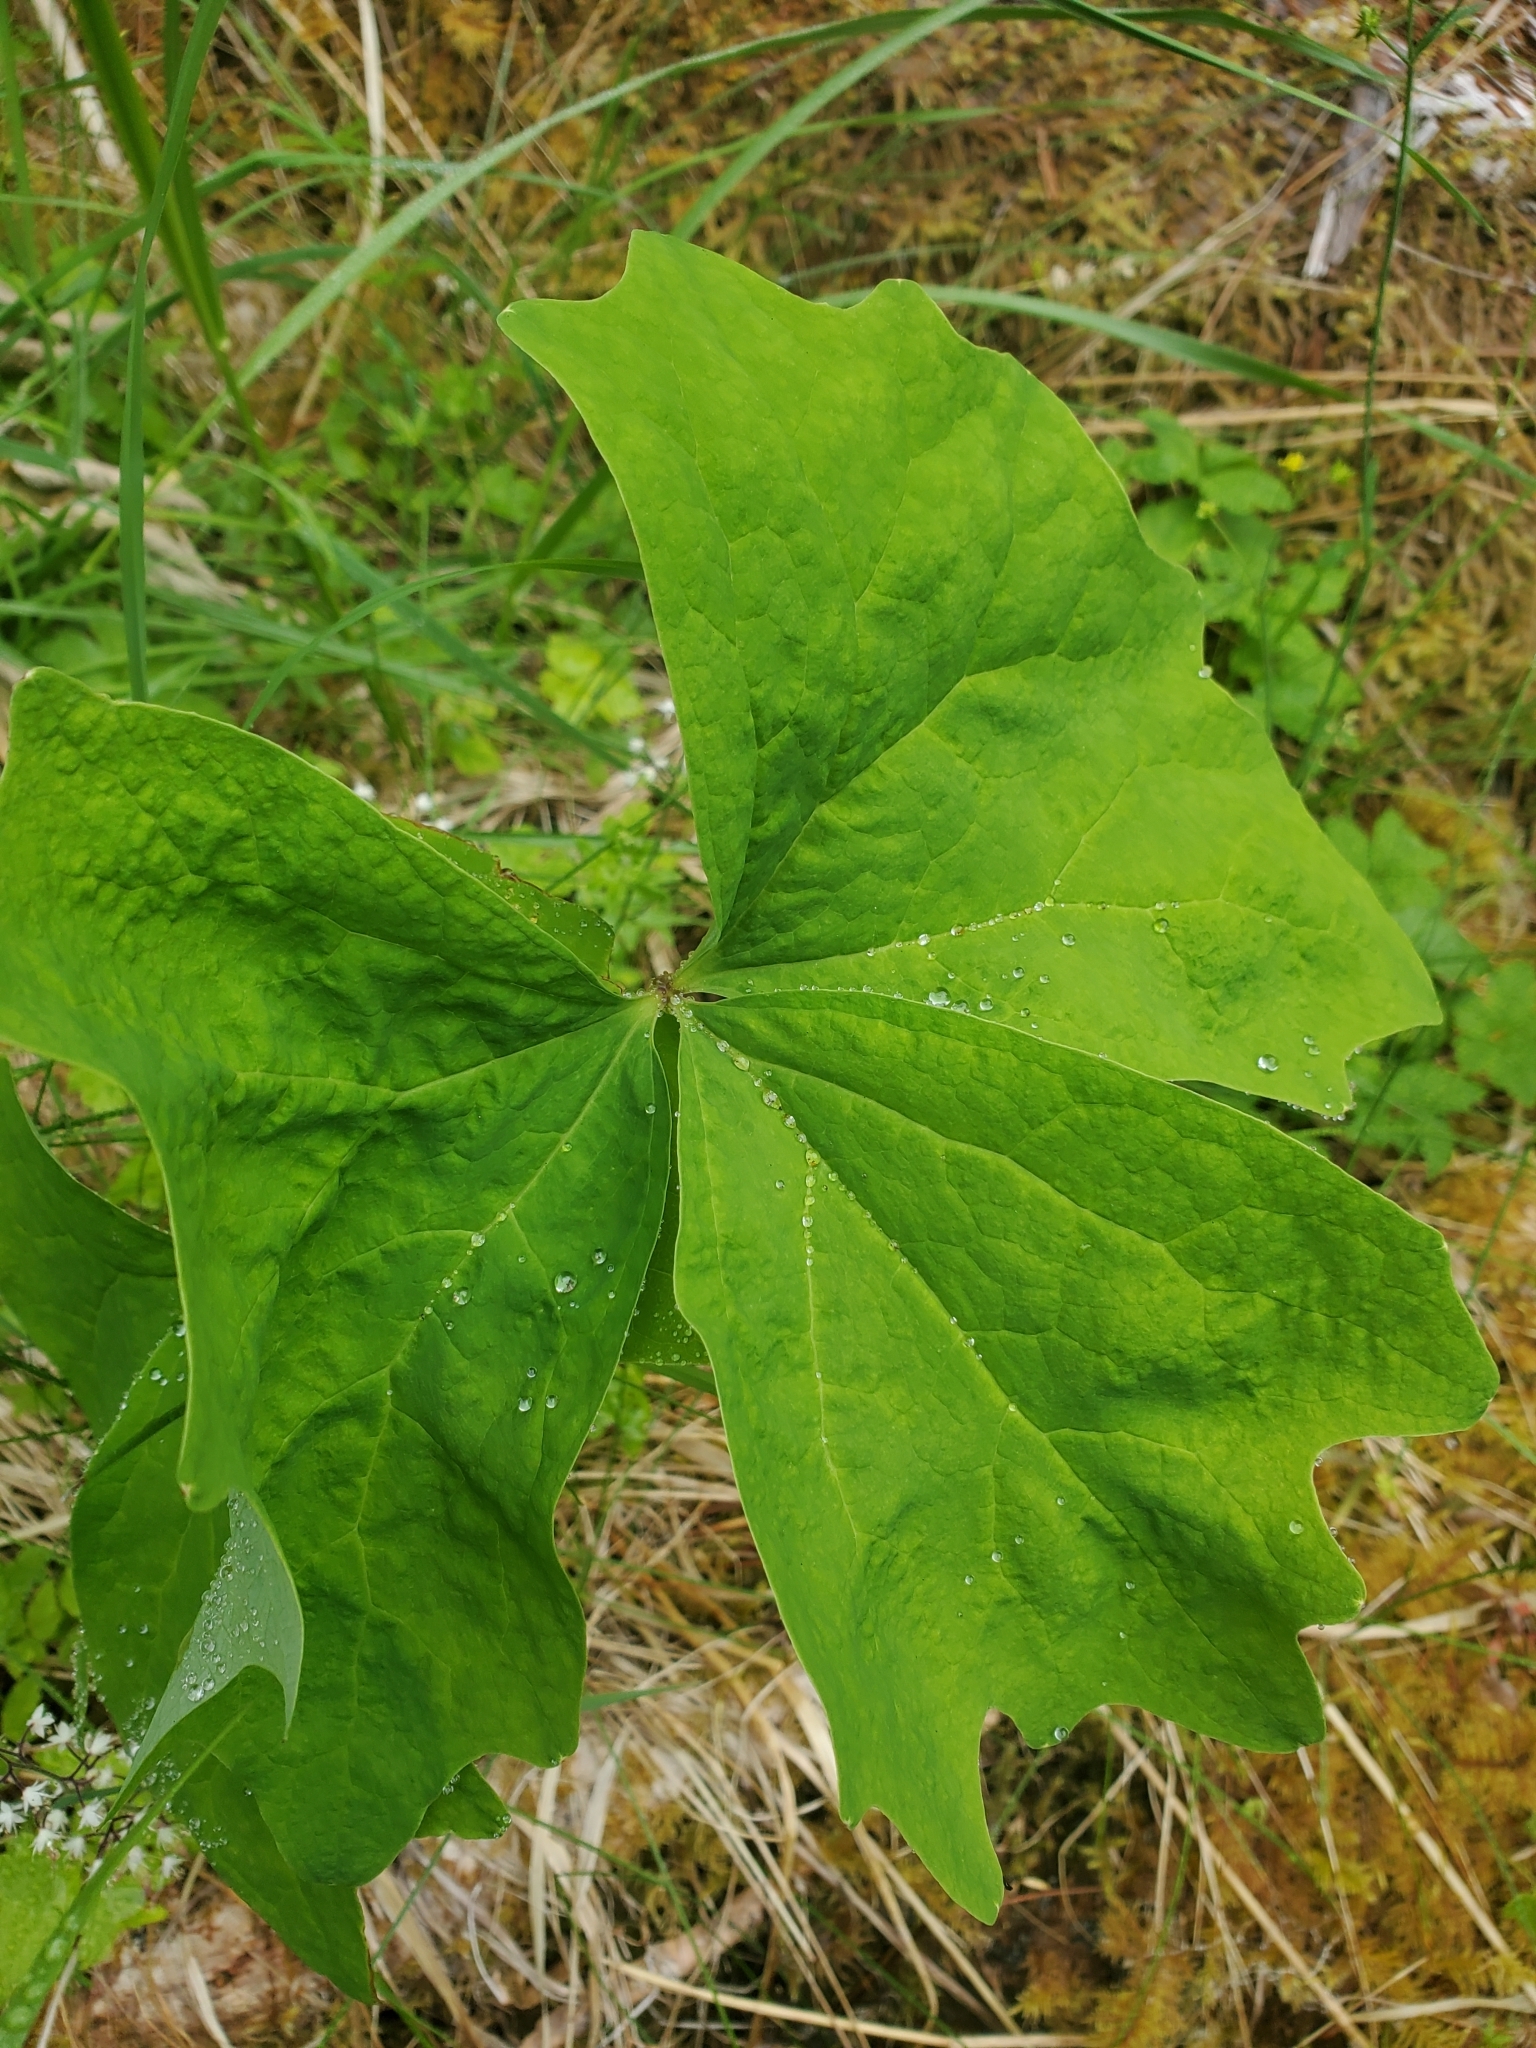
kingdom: Plantae
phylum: Tracheophyta
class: Magnoliopsida
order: Ranunculales
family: Berberidaceae
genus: Achlys
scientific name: Achlys triphylla
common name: Vanilla-leaf
